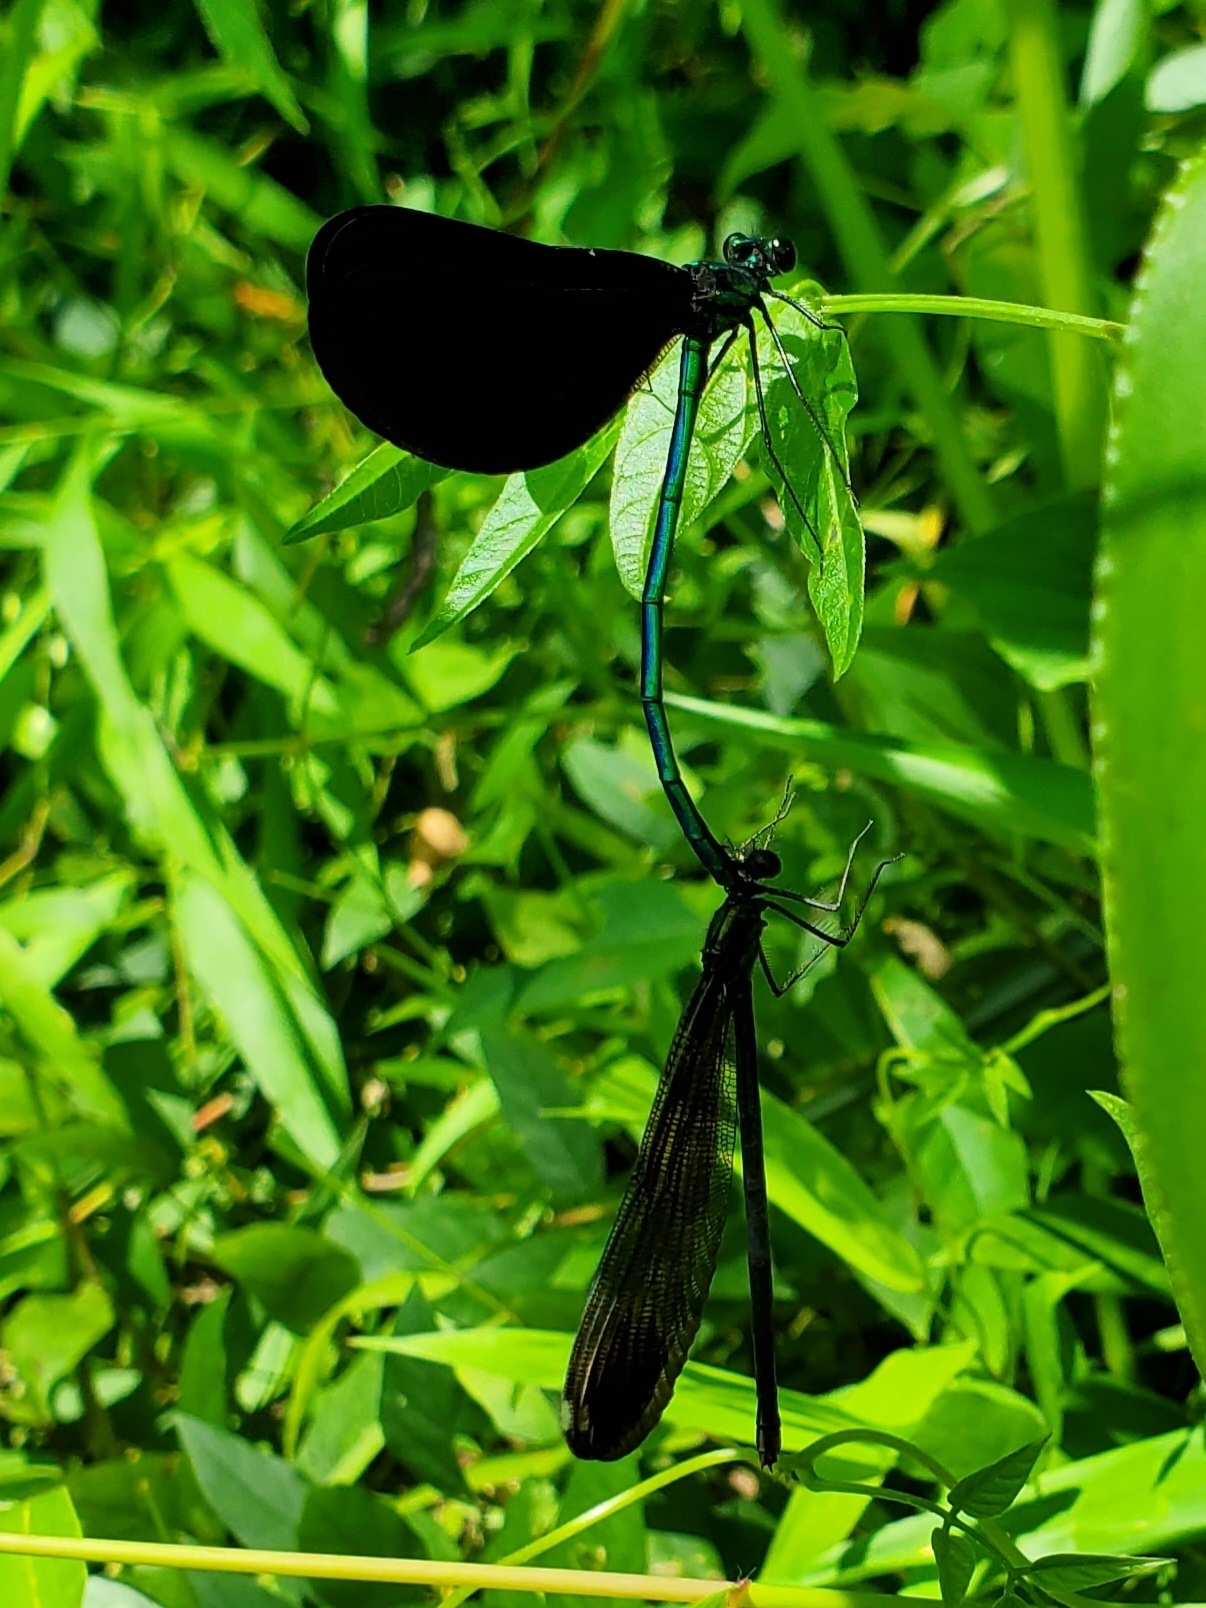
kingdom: Animalia
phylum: Arthropoda
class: Insecta
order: Odonata
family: Calopterygidae
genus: Calopteryx
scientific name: Calopteryx maculata
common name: Ebony jewelwing
